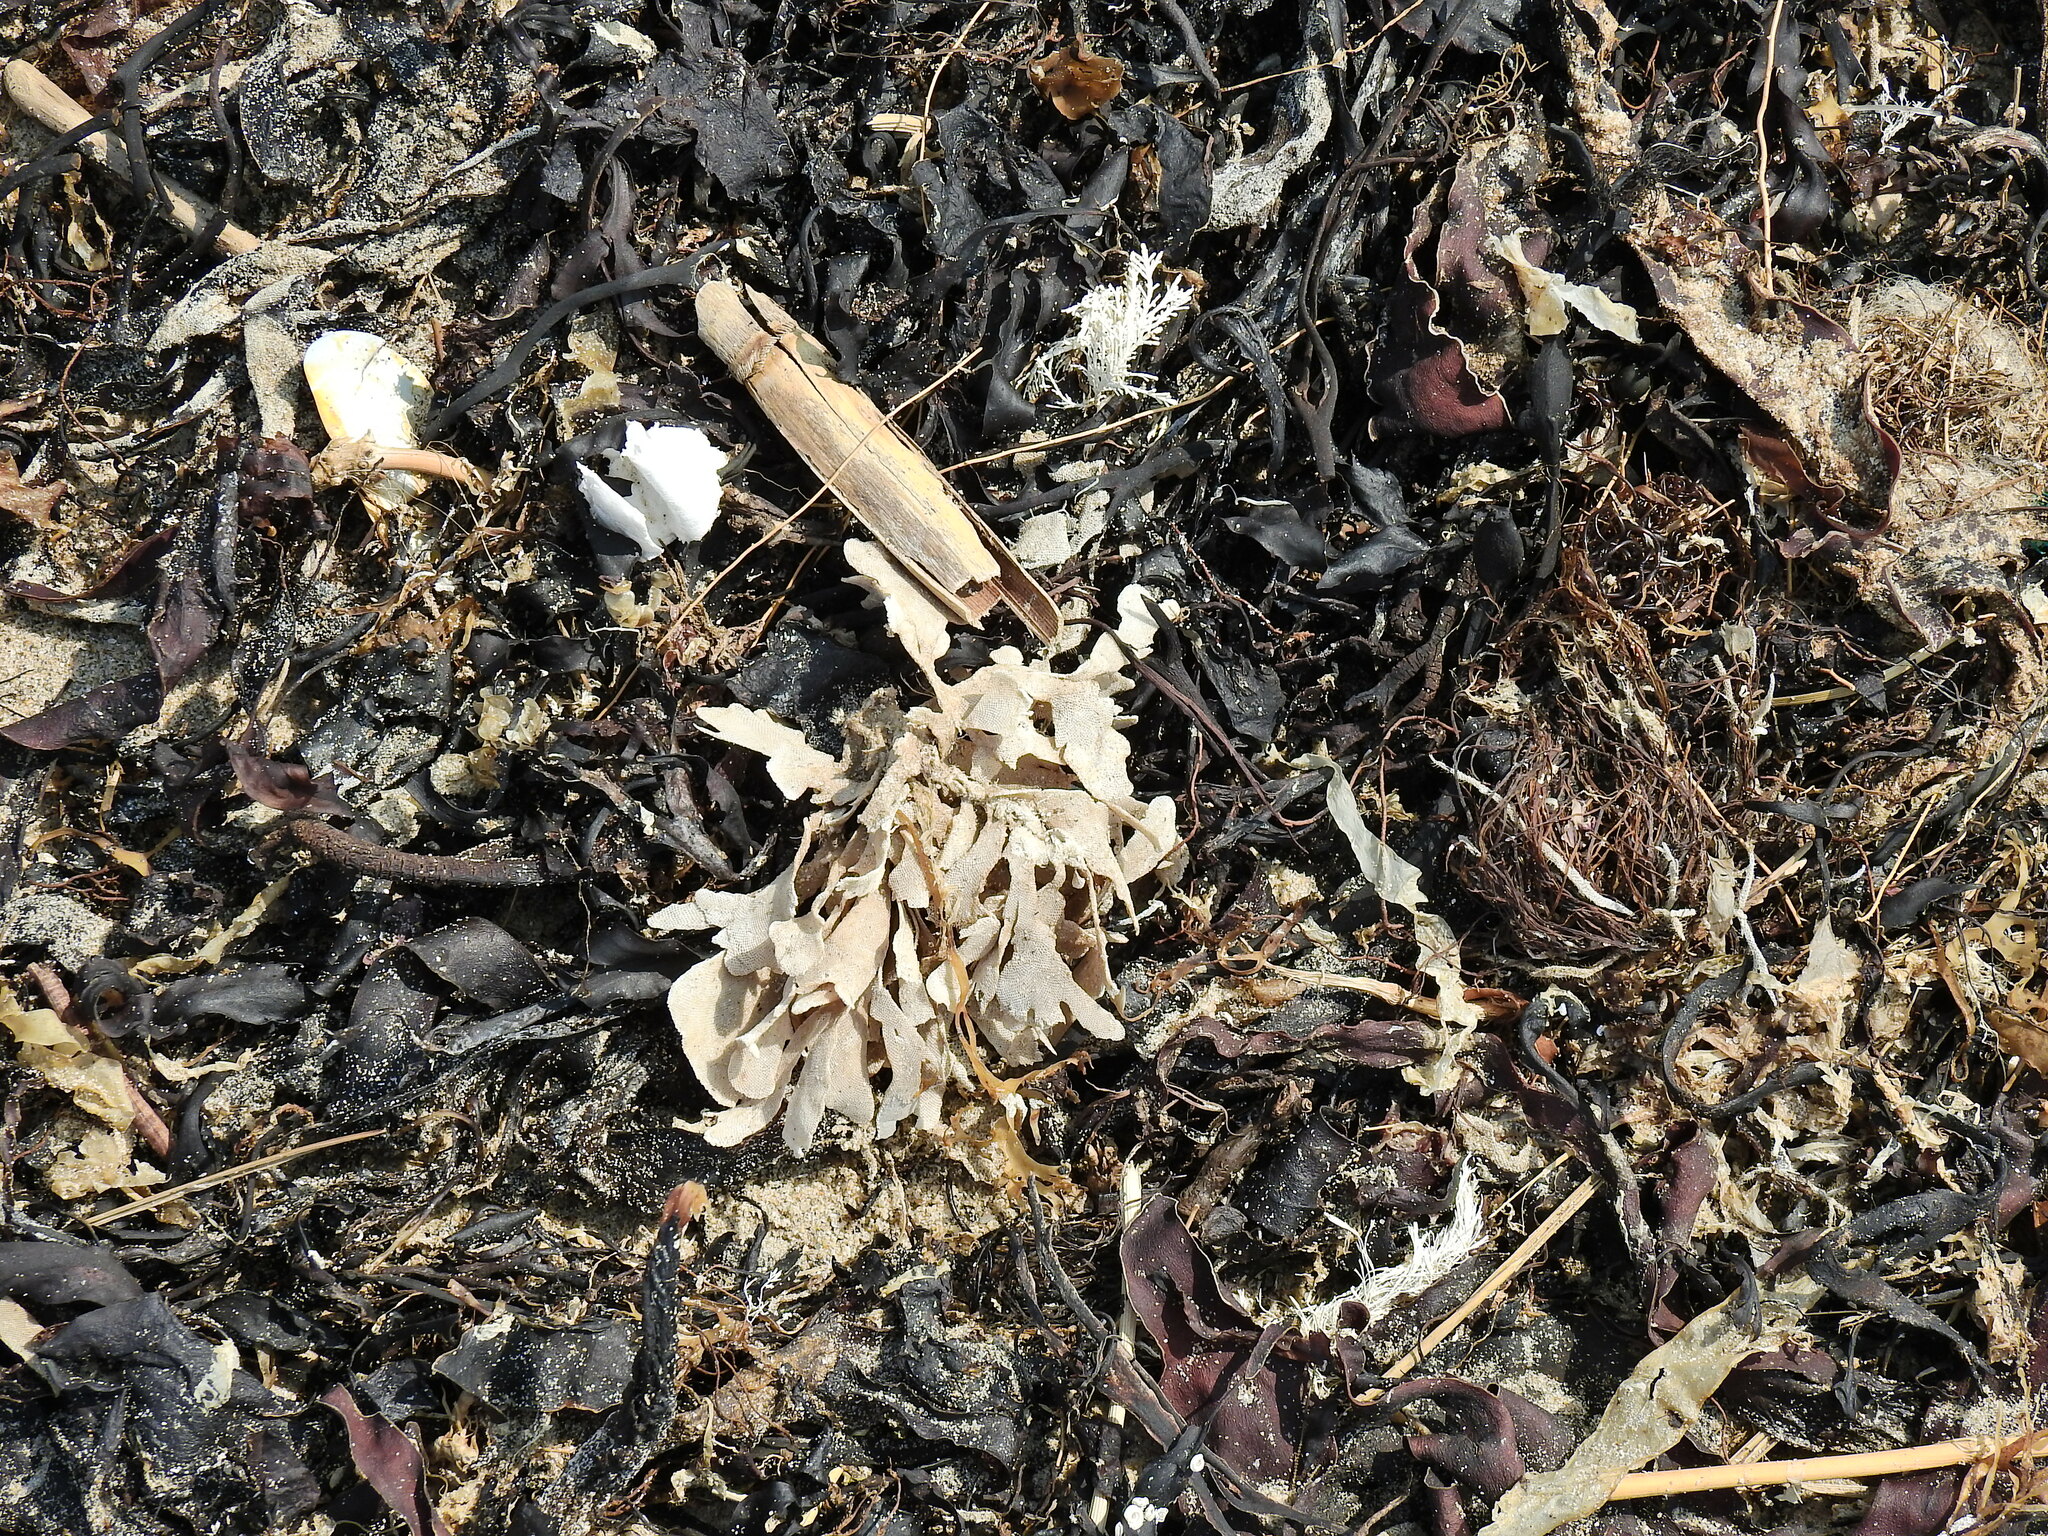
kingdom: Animalia
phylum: Bryozoa
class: Gymnolaemata
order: Cheilostomatida
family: Flustridae
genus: Flustra
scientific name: Flustra foliacea
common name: Hornwrack
